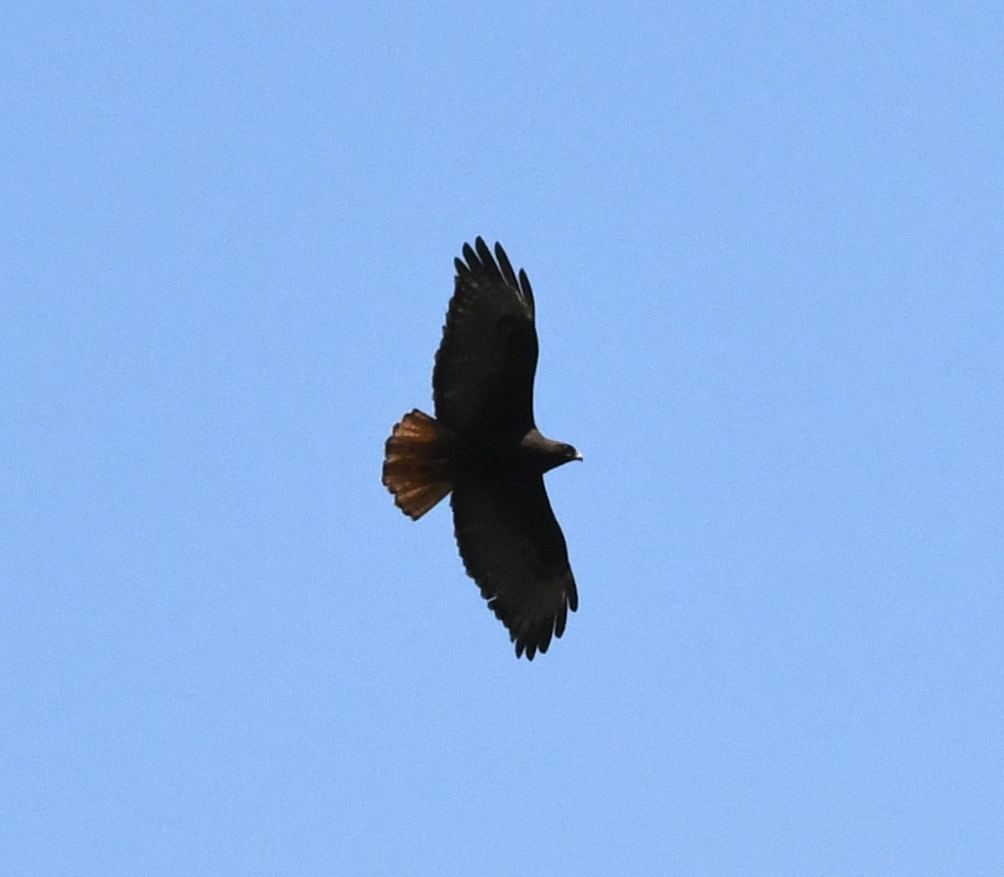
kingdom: Animalia
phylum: Chordata
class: Aves
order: Accipitriformes
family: Accipitridae
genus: Buteo
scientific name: Buteo jamaicensis
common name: Red-tailed hawk
